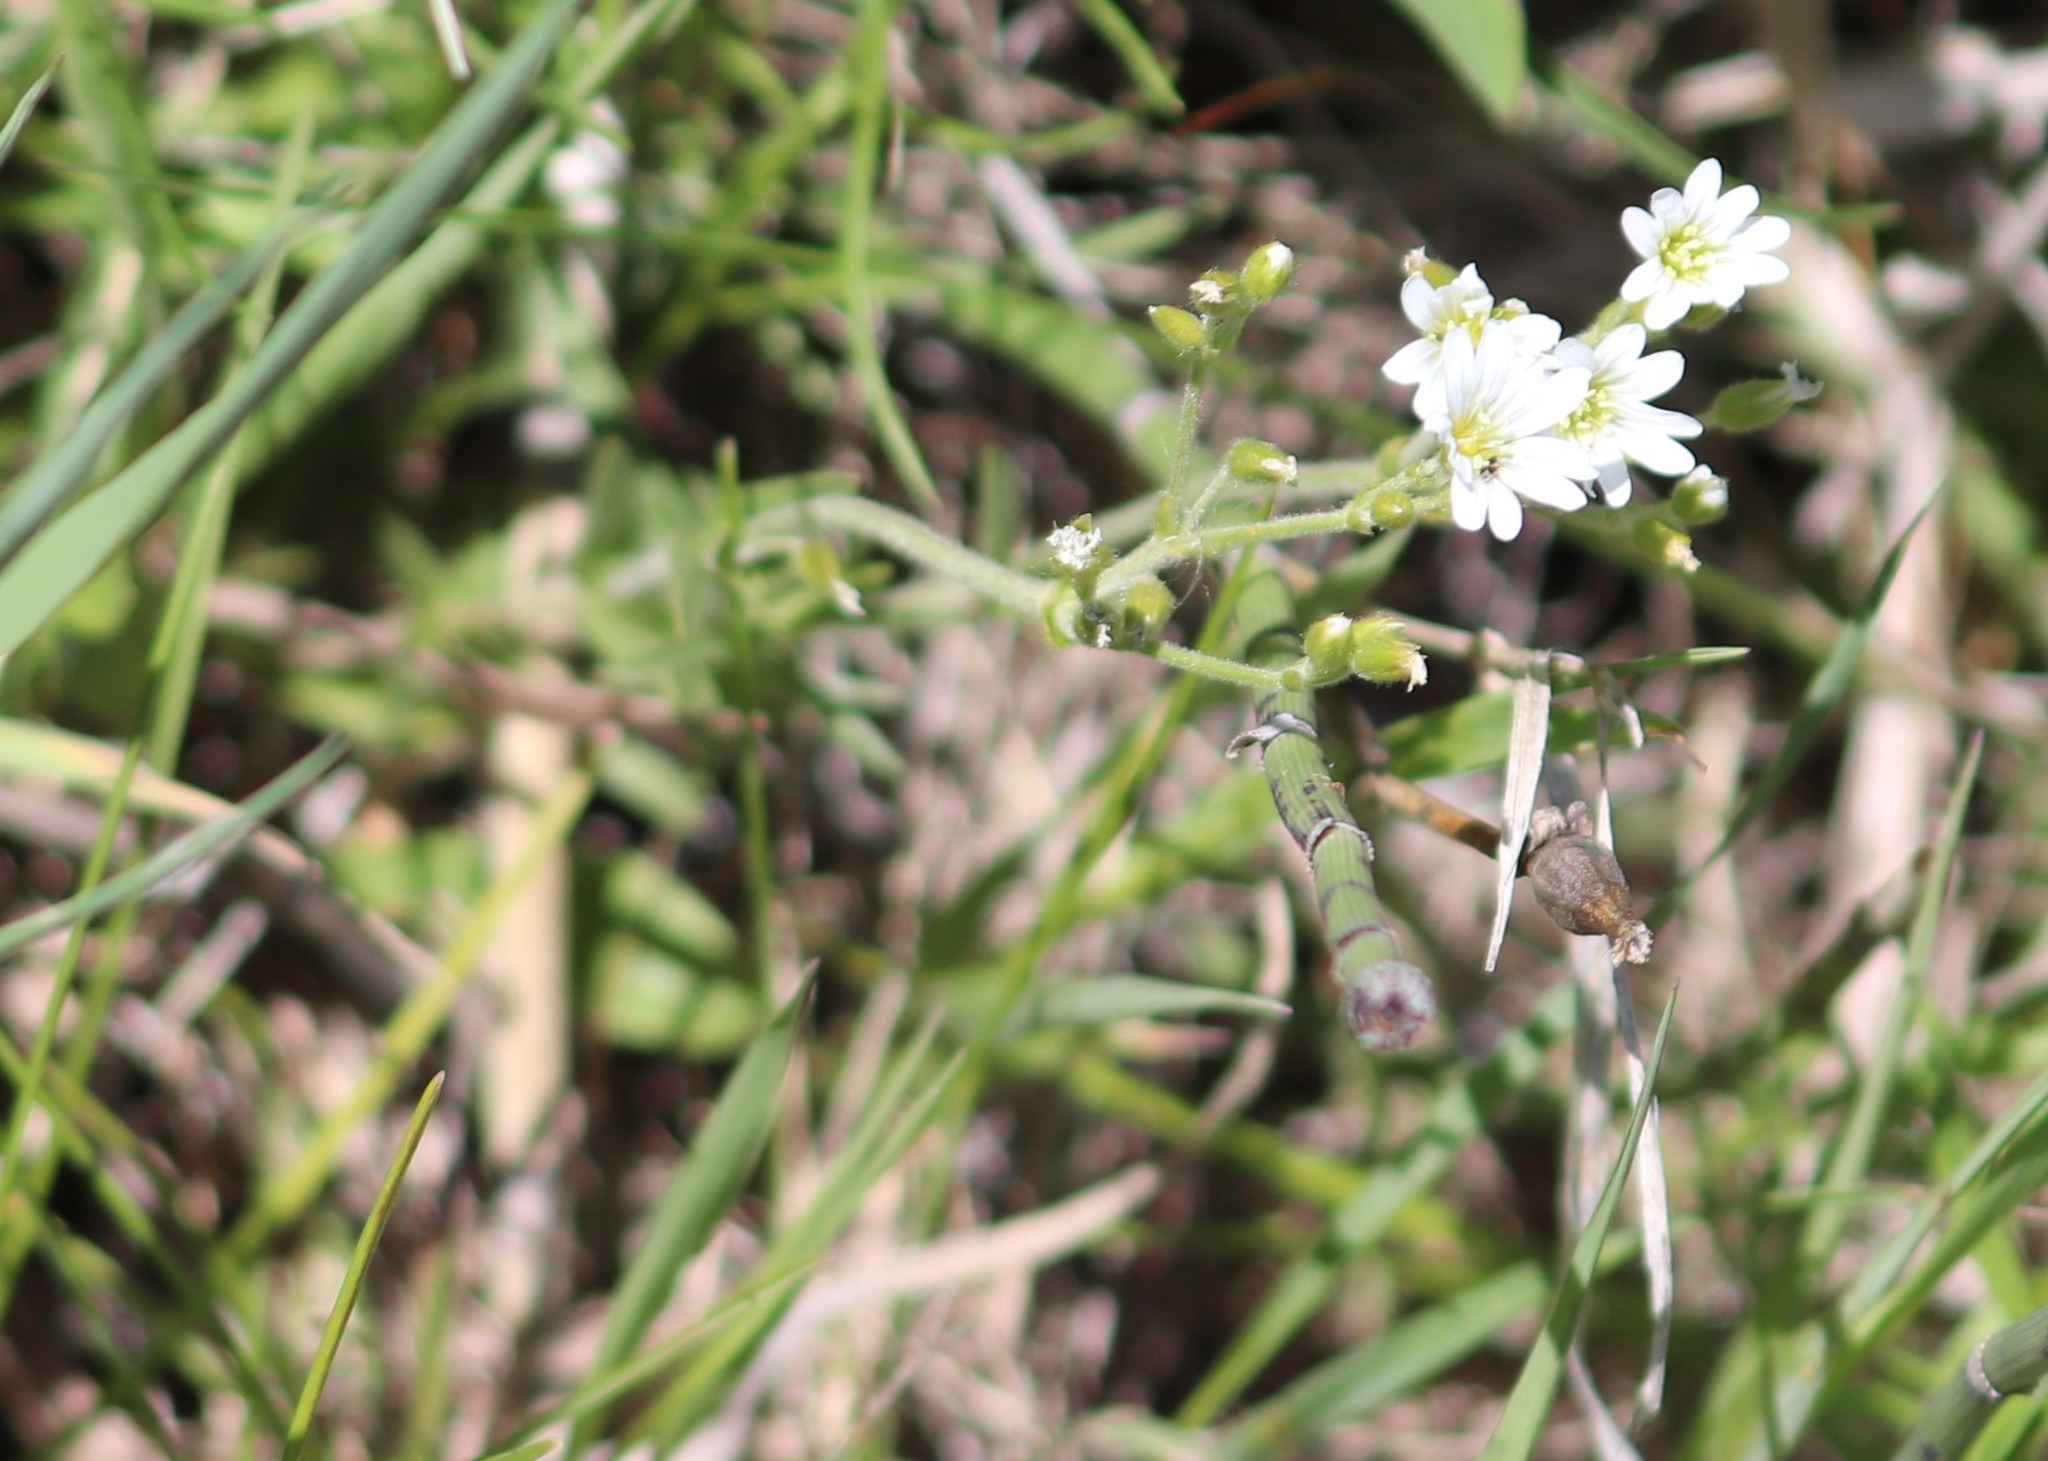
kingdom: Plantae
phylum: Tracheophyta
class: Magnoliopsida
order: Caryophyllales
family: Caryophyllaceae
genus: Cerastium
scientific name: Cerastium arvense
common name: Field mouse-ear
